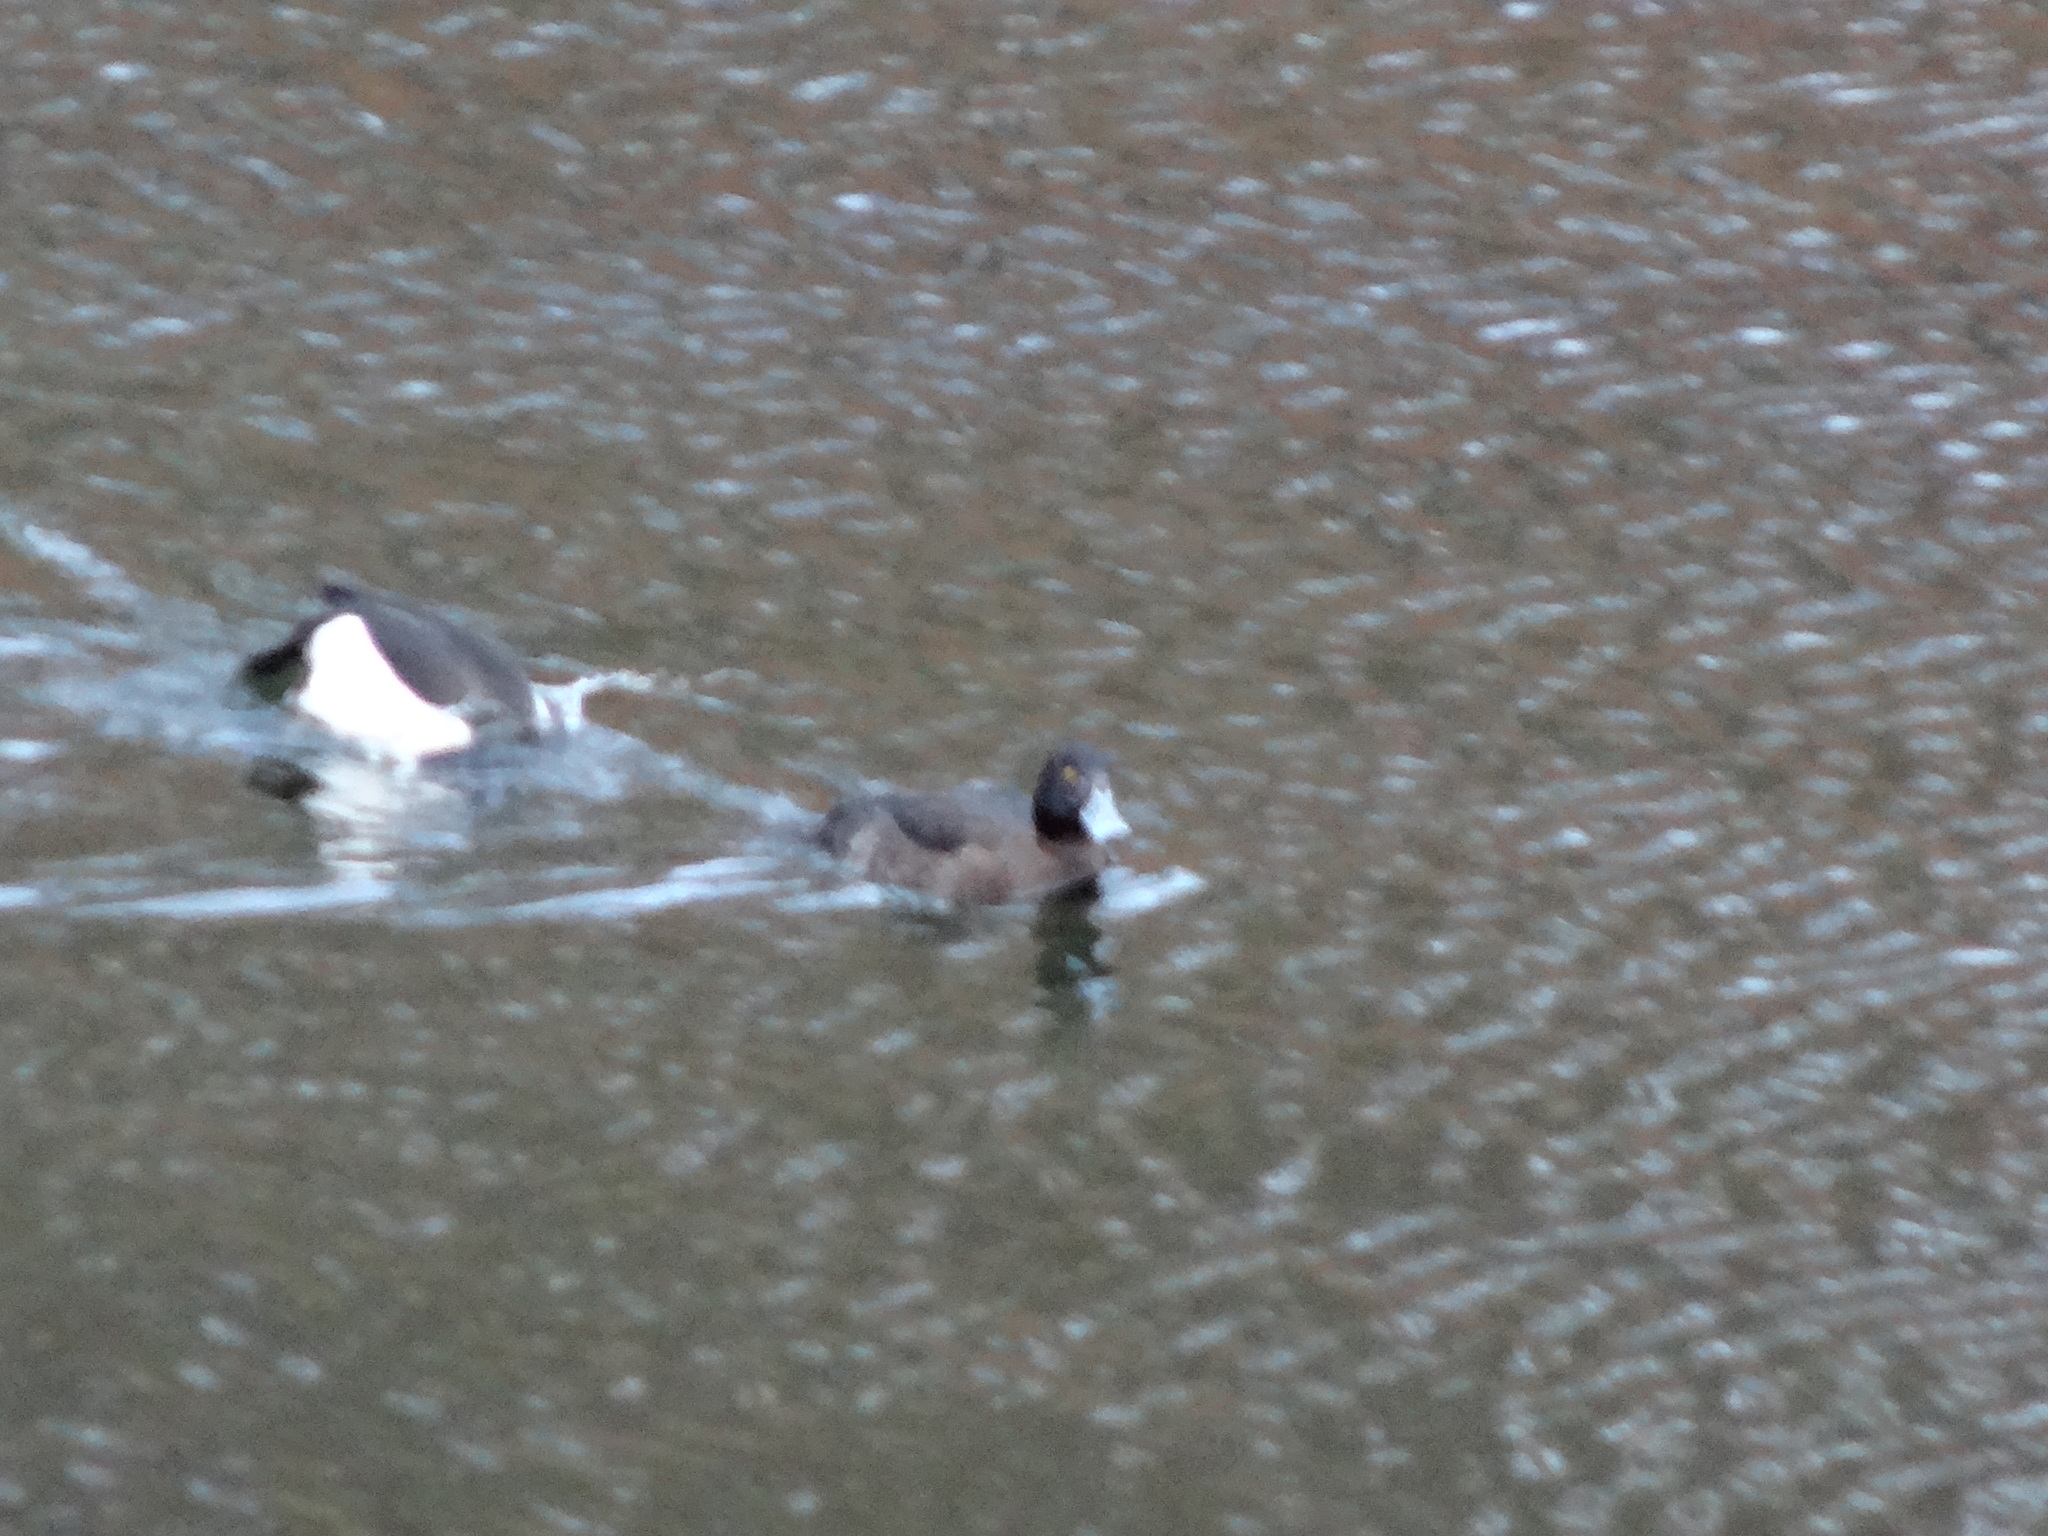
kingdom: Animalia
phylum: Chordata
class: Aves
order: Anseriformes
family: Anatidae
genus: Aythya
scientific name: Aythya fuligula
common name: Tufted duck
